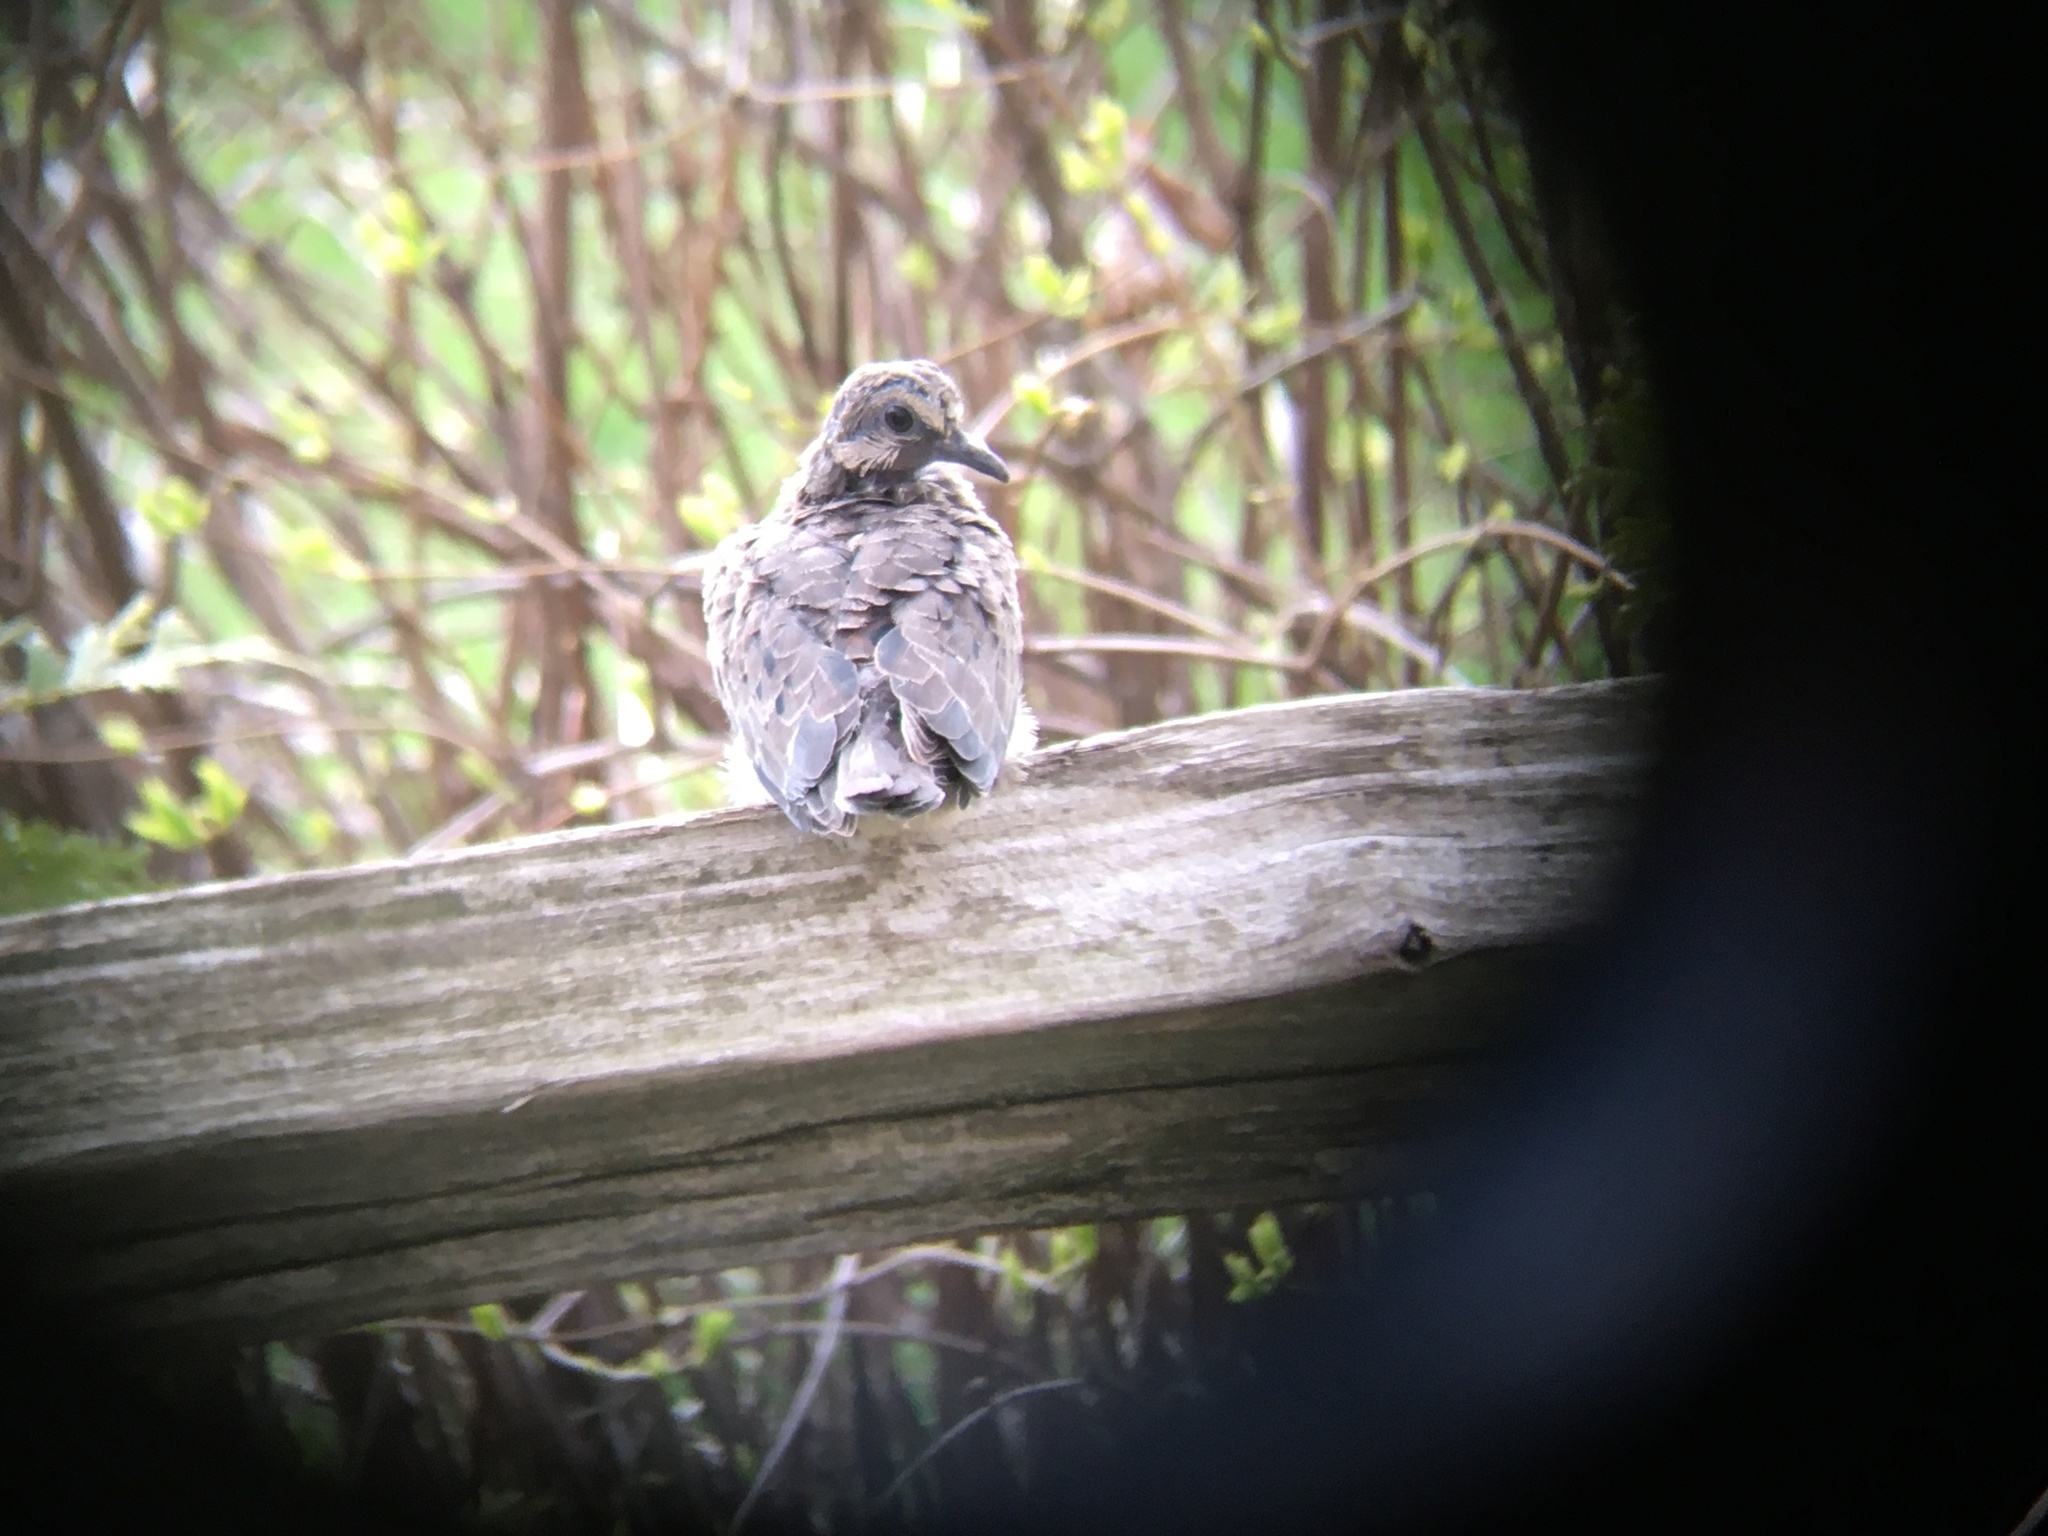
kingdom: Animalia
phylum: Chordata
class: Aves
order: Columbiformes
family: Columbidae
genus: Zenaida
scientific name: Zenaida macroura
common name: Mourning dove
